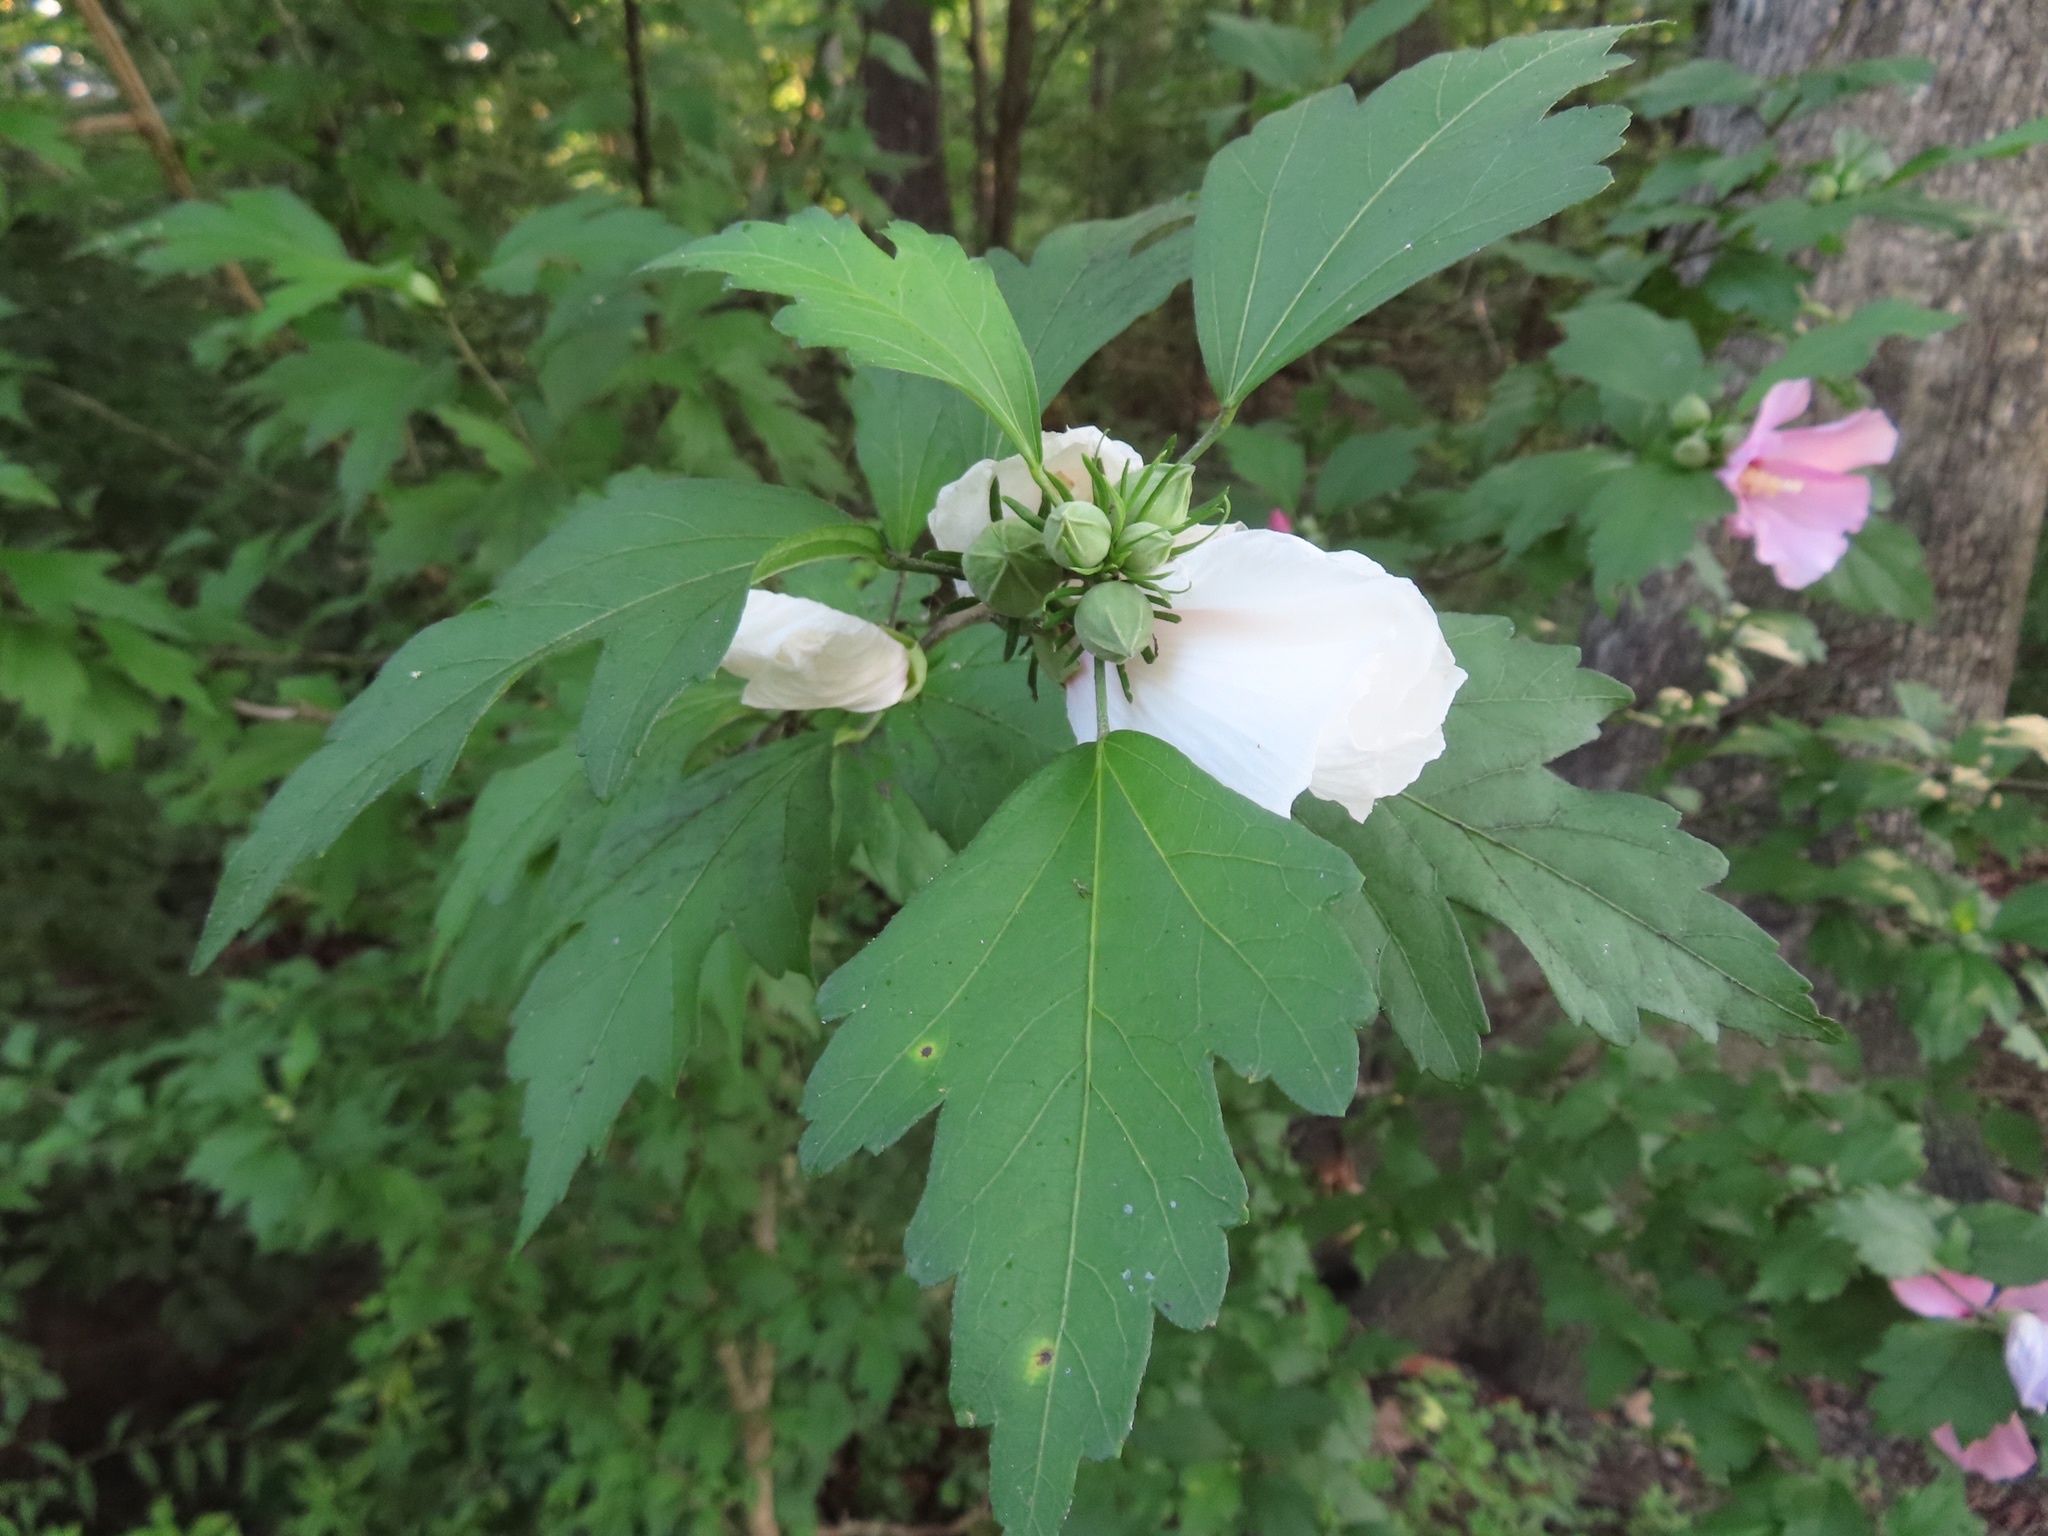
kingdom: Plantae
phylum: Tracheophyta
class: Magnoliopsida
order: Malvales
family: Malvaceae
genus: Hibiscus
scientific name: Hibiscus syriacus
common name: Syrian ketmia
